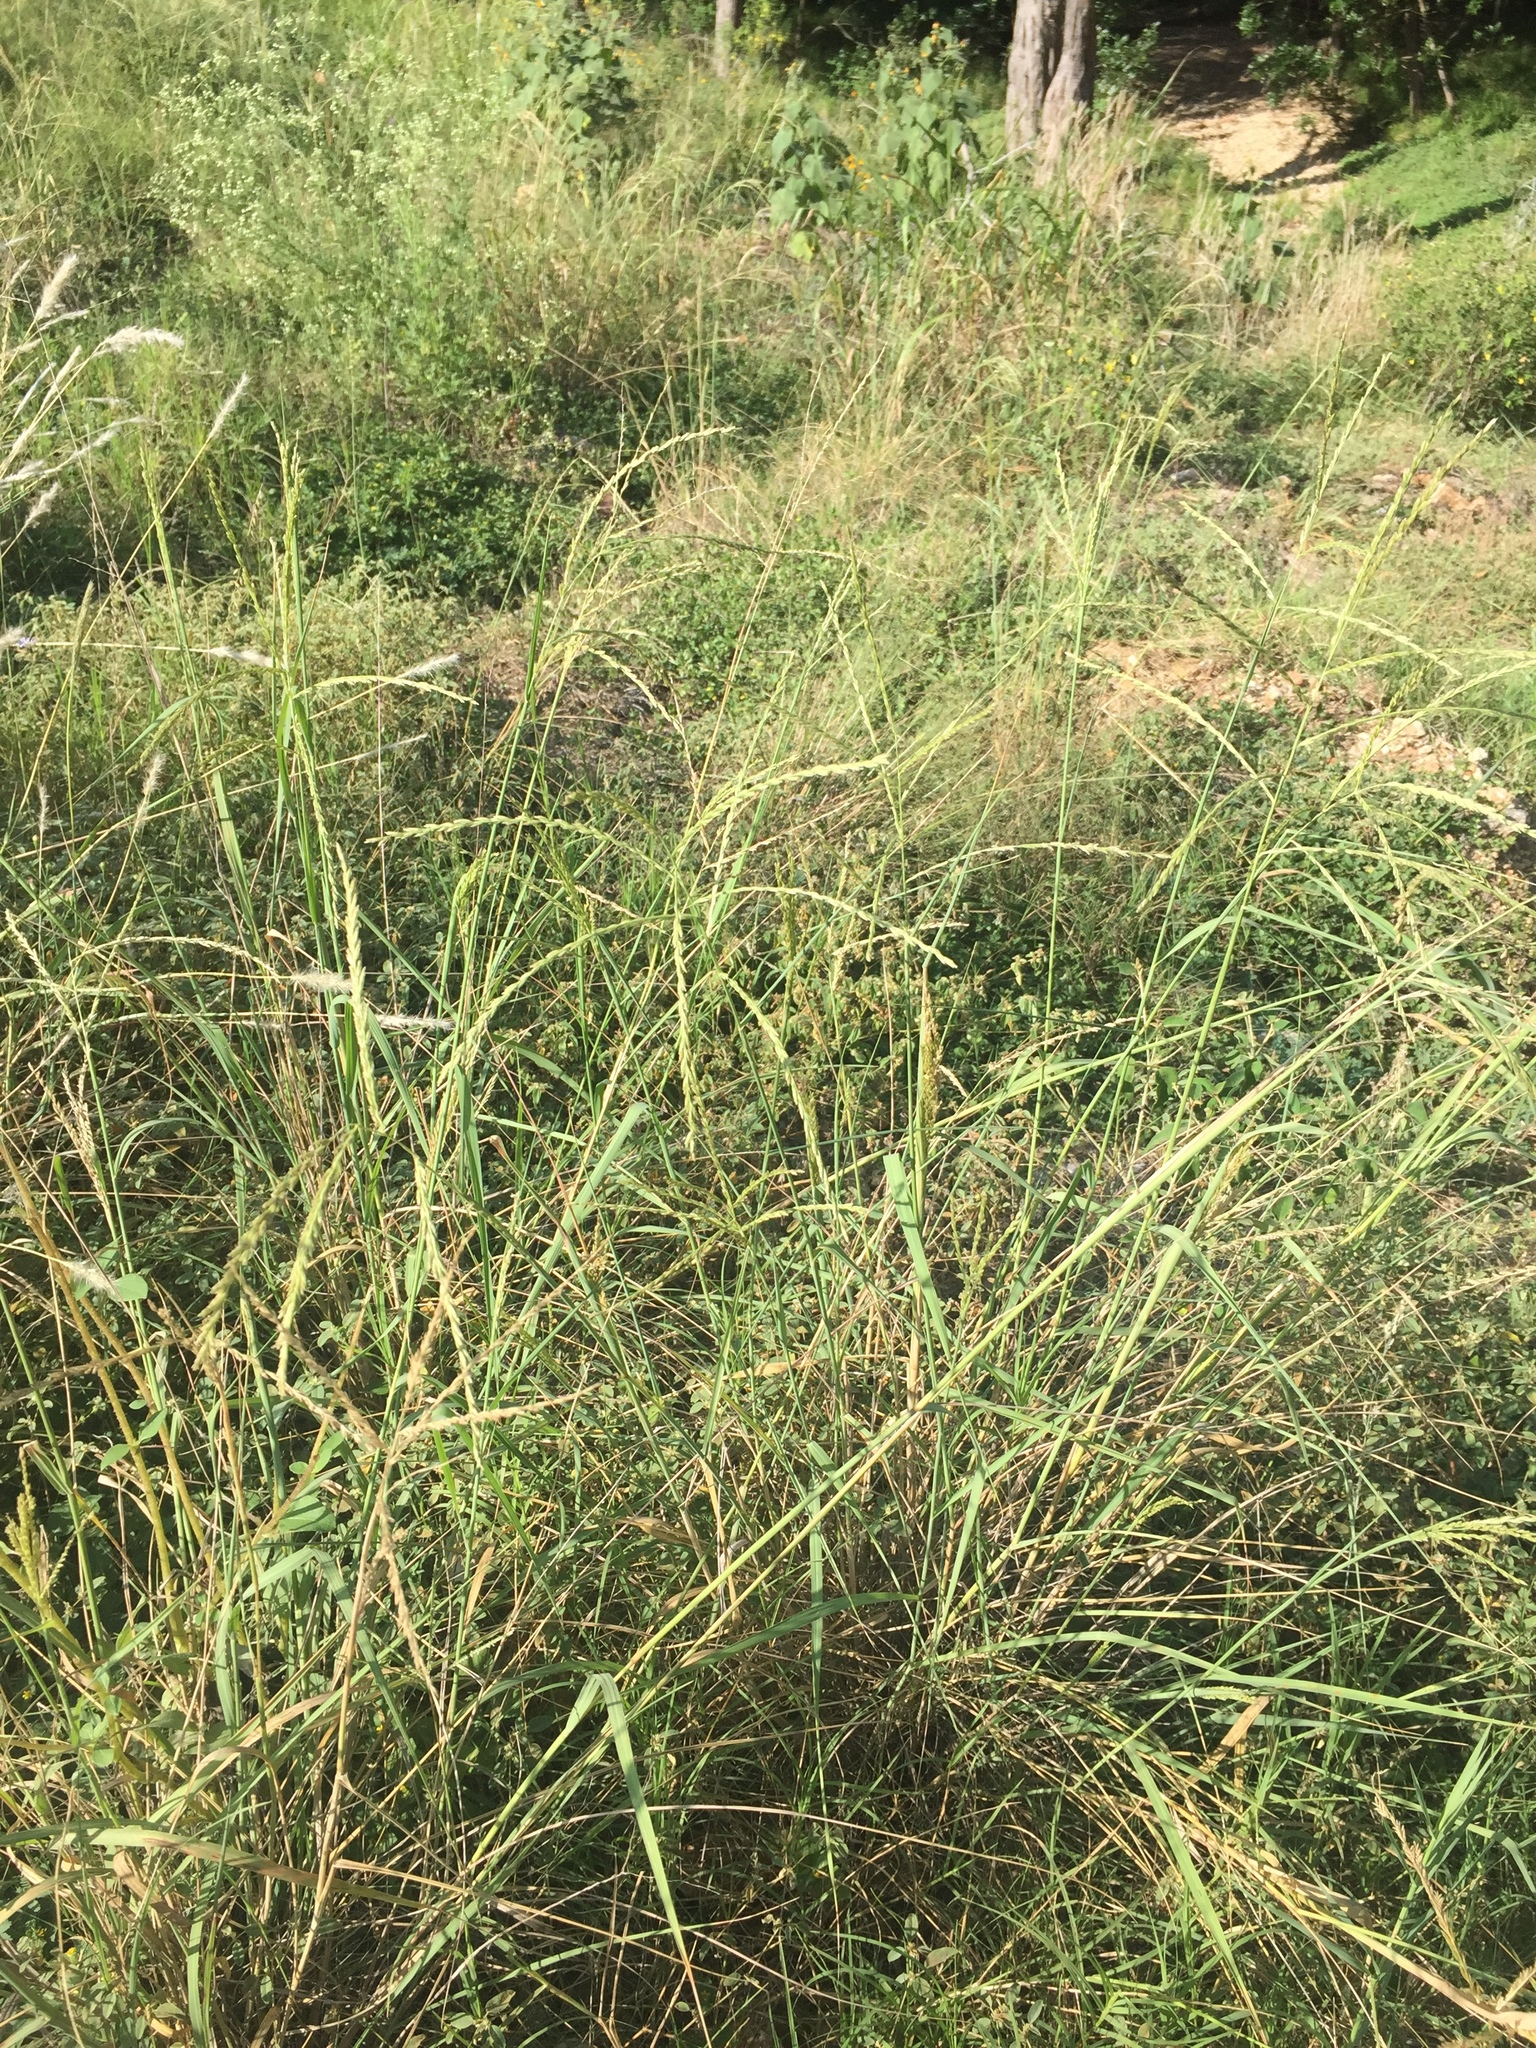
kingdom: Plantae
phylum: Tracheophyta
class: Liliopsida
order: Poales
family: Poaceae
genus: Disakisperma
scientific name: Disakisperma dubium
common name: Green sprangletop
